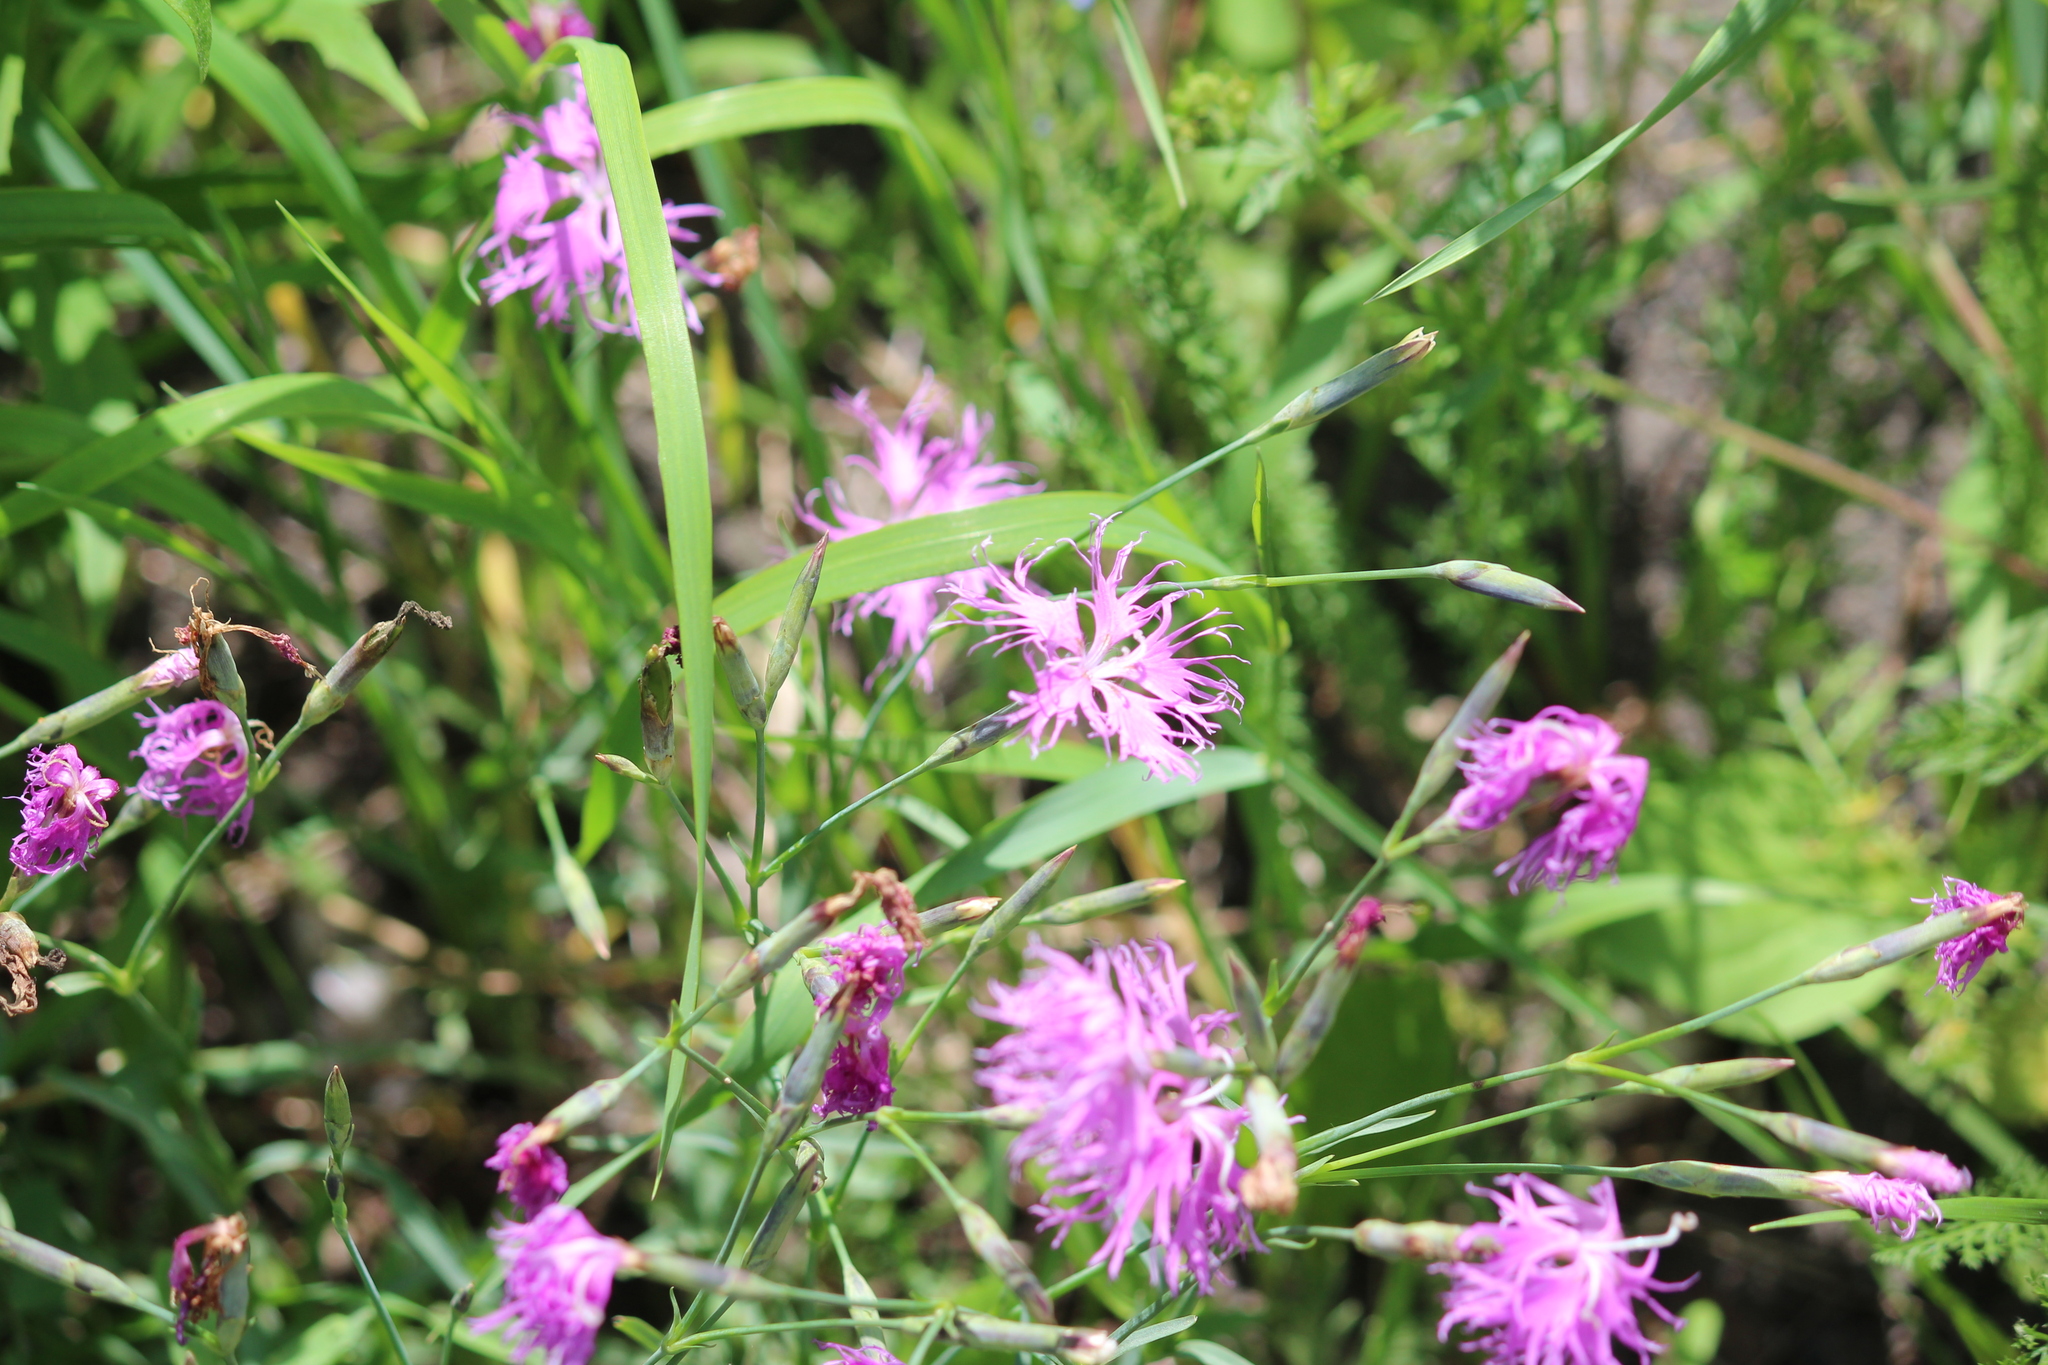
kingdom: Plantae
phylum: Tracheophyta
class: Magnoliopsida
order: Caryophyllales
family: Caryophyllaceae
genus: Dianthus
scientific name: Dianthus superbus
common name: Fringed pink
